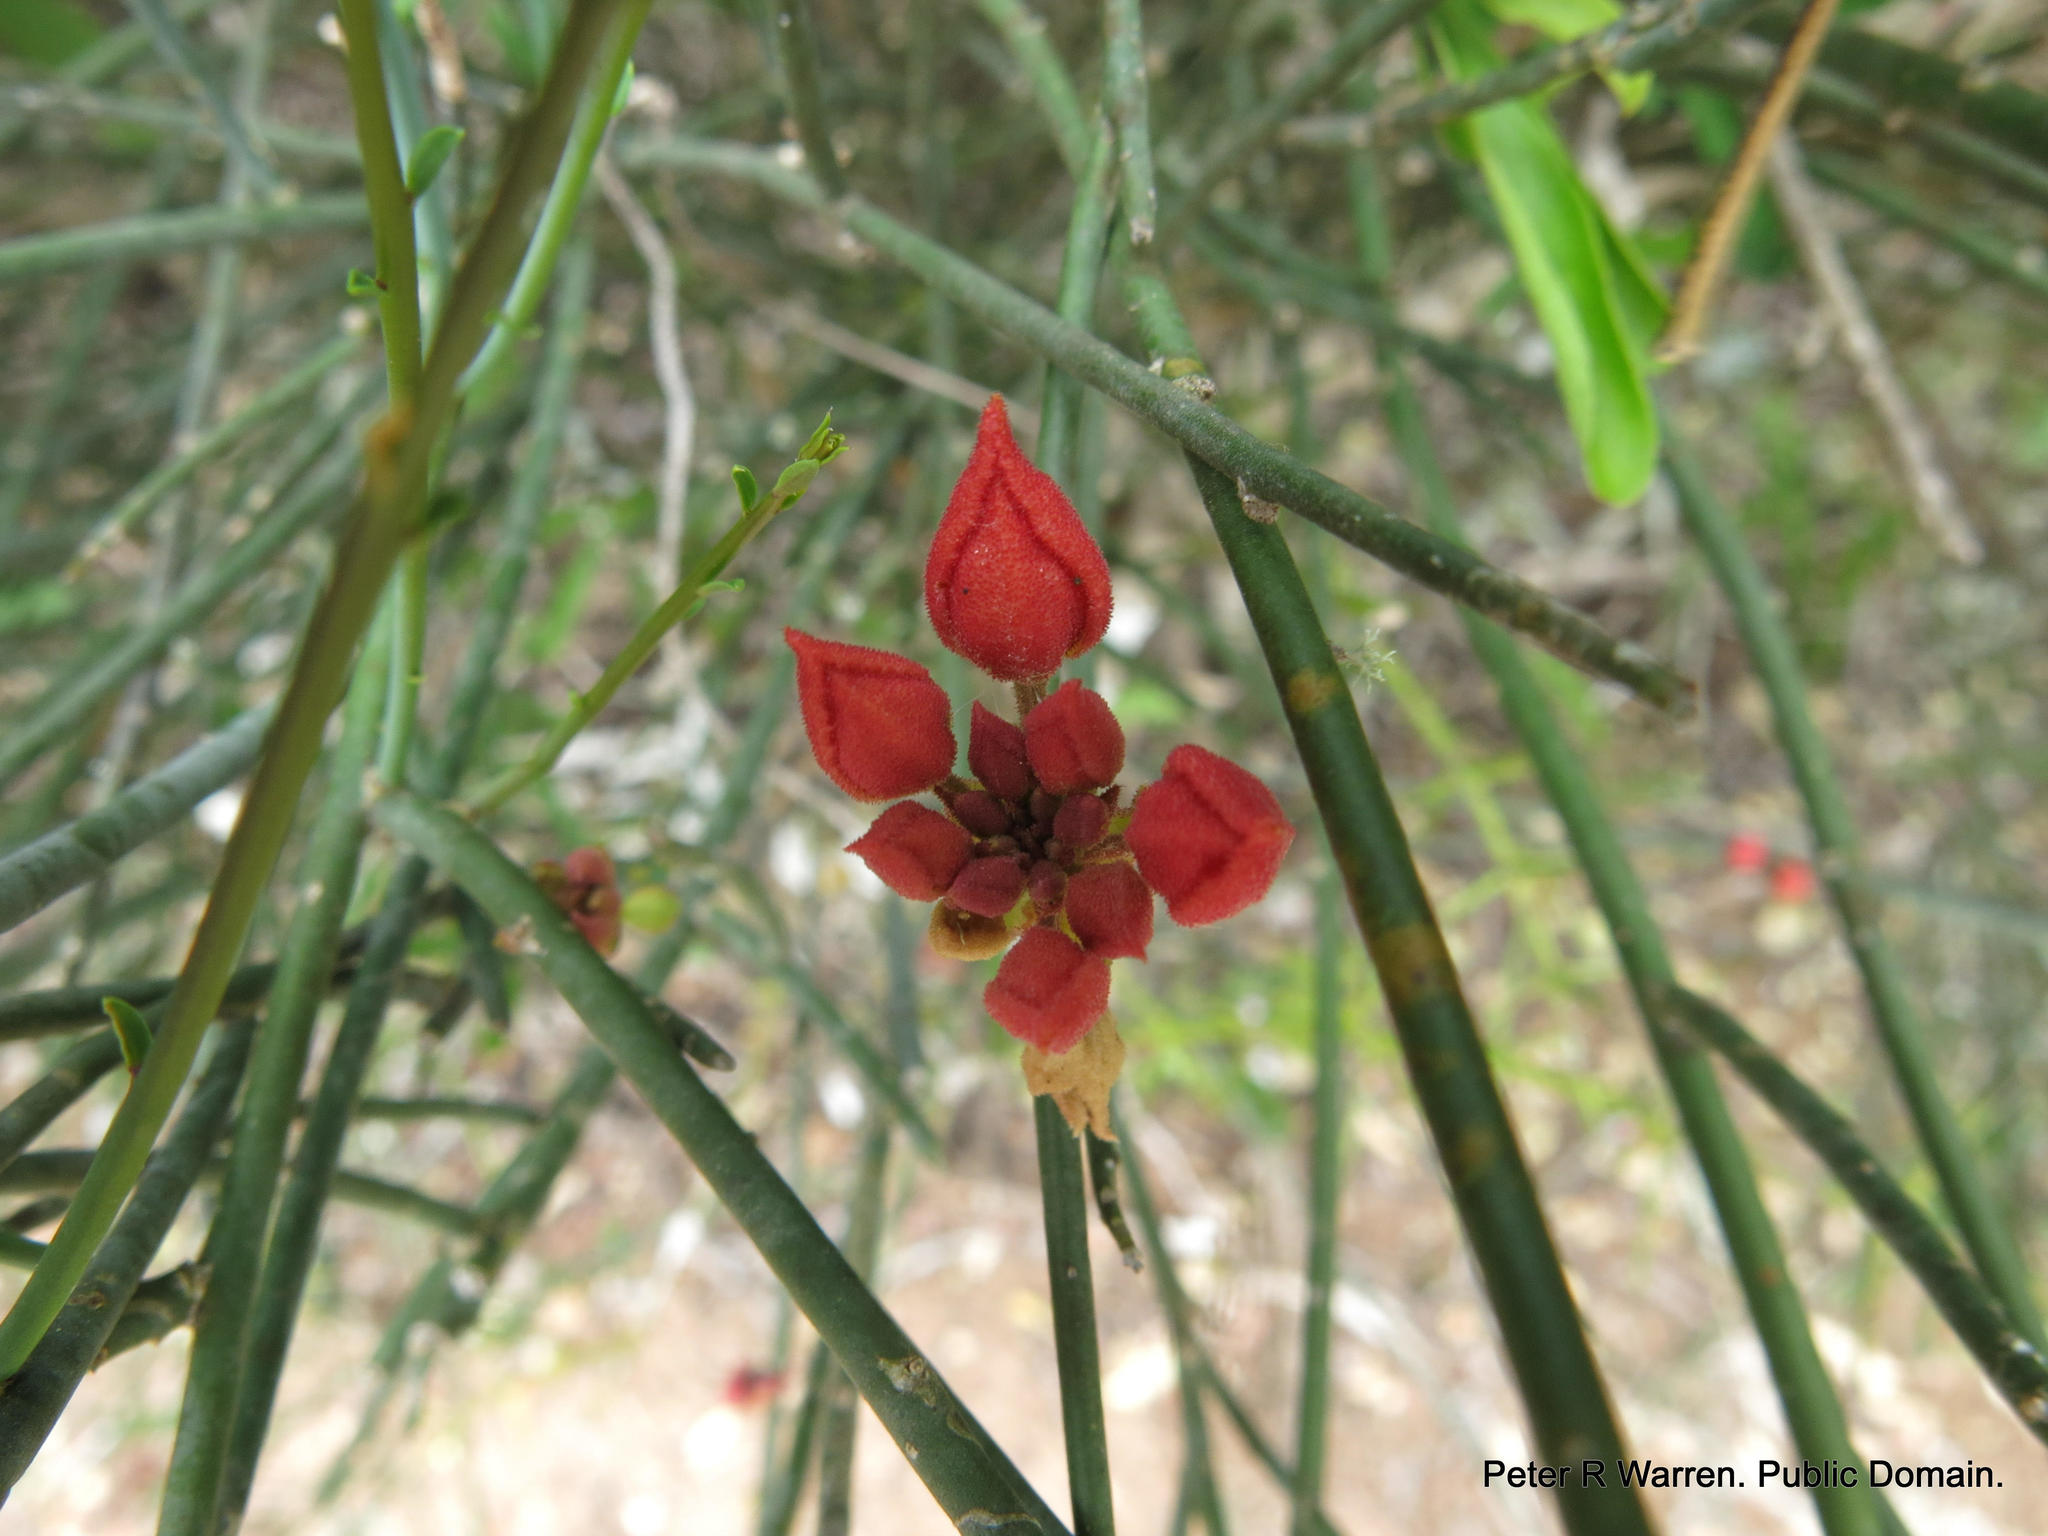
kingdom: Plantae
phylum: Tracheophyta
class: Magnoliopsida
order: Brassicales
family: Capparaceae
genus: Cadaba
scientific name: Cadaba aphylla
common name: Black storm
